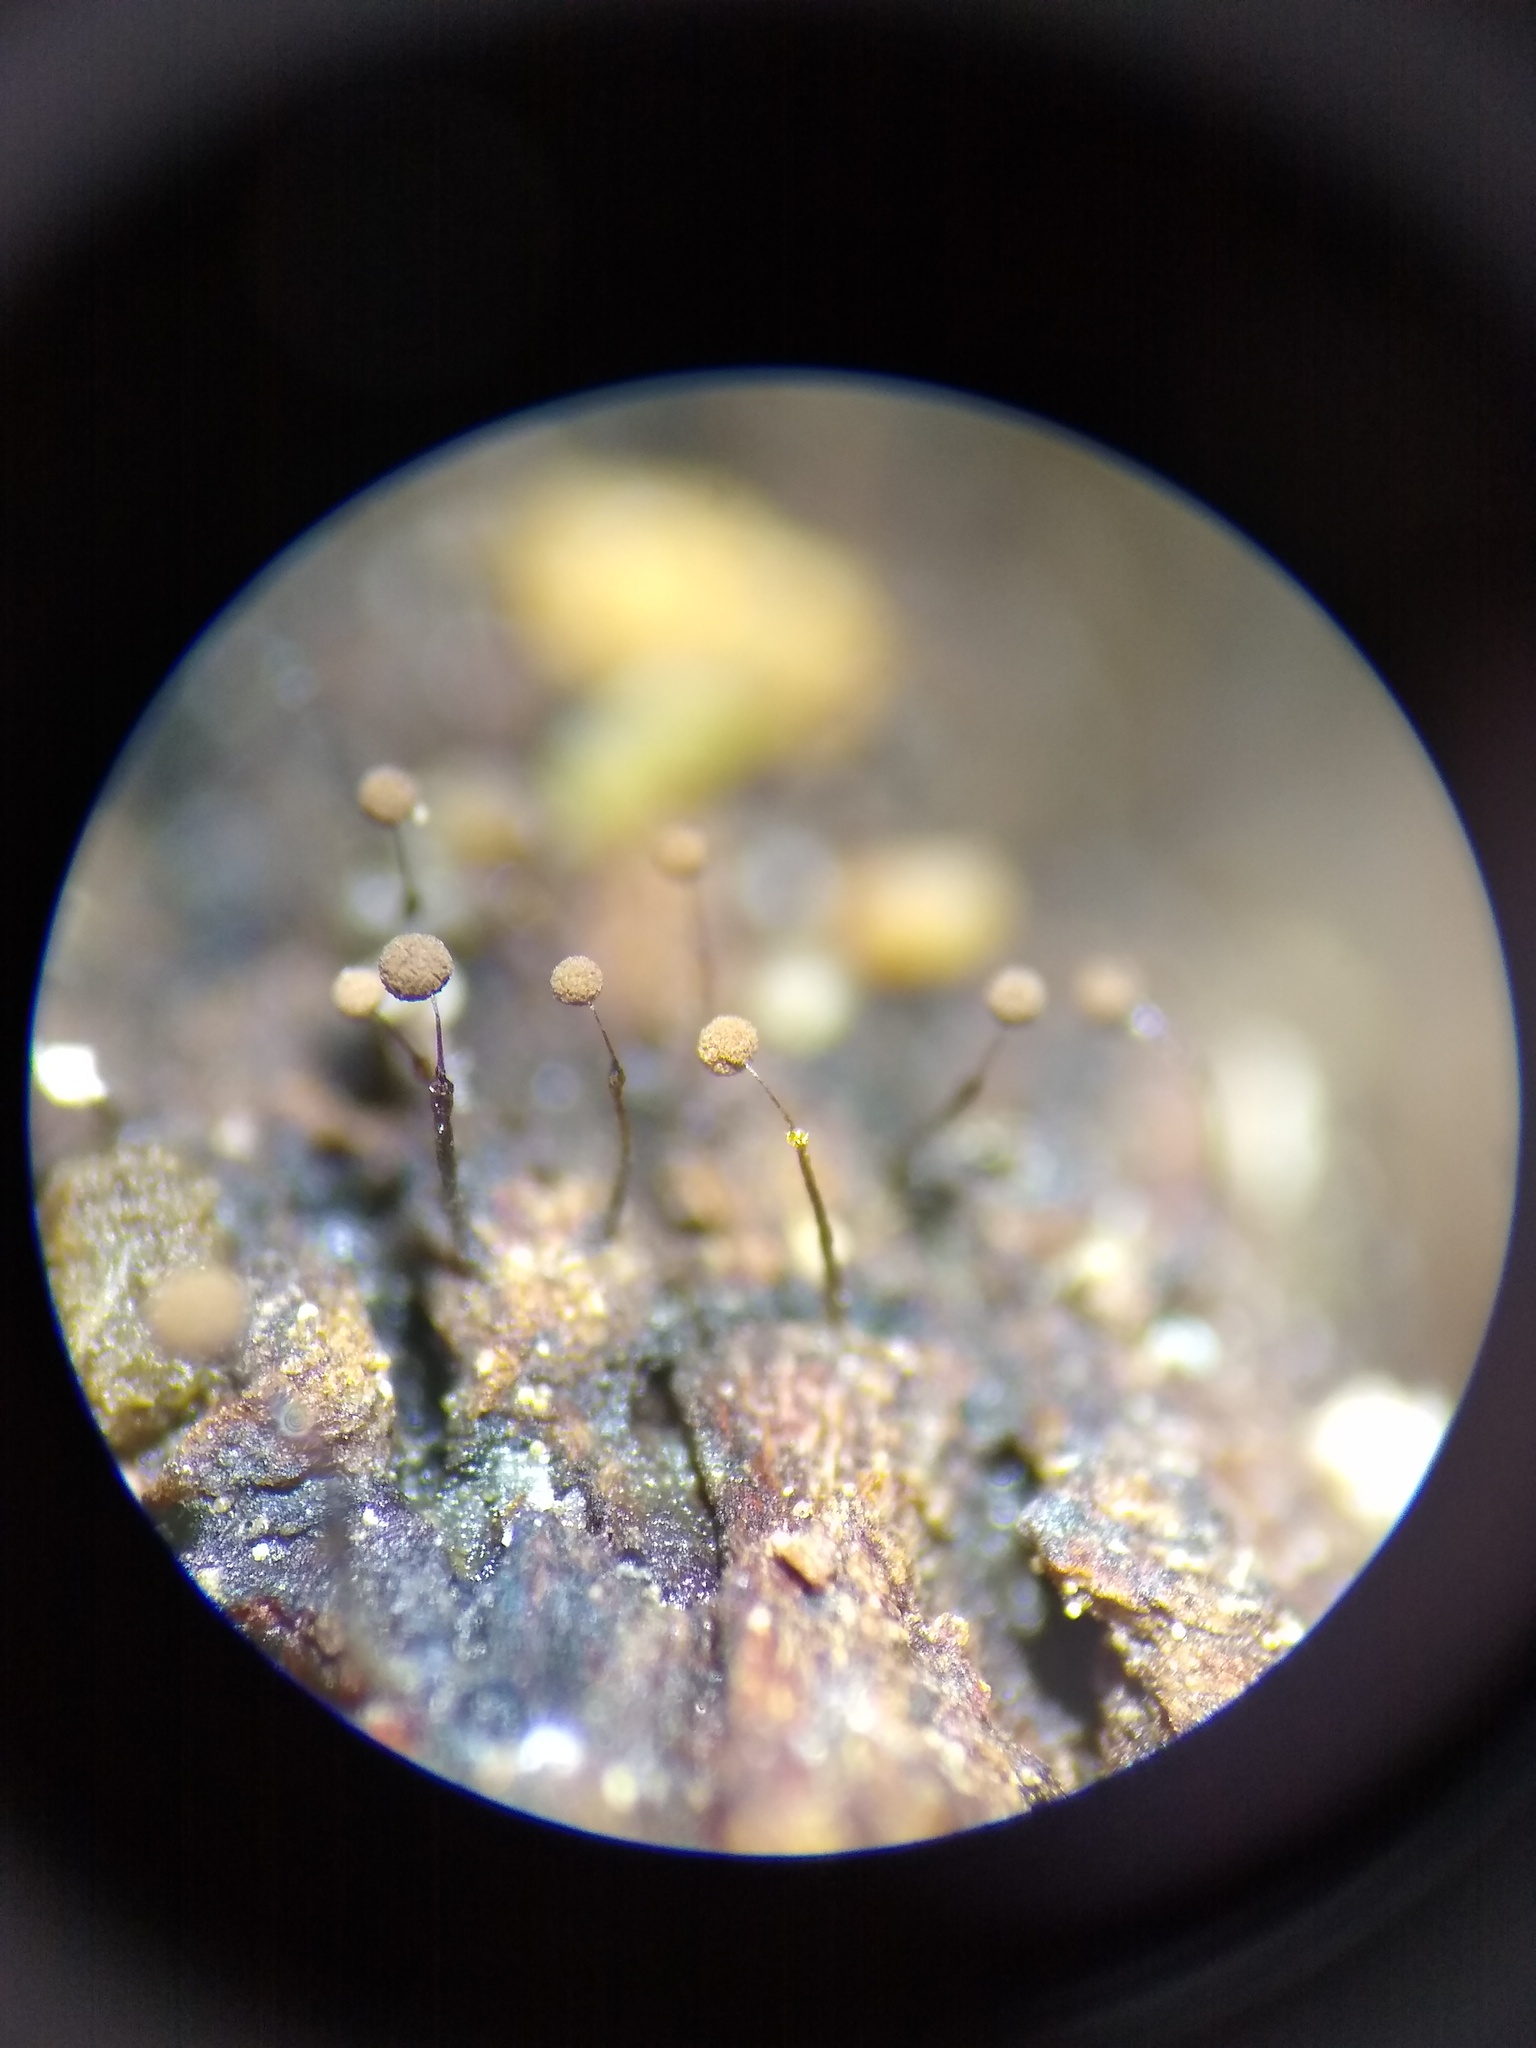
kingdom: Protozoa
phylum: Mycetozoa
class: Myxomycetes
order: Echinosteliales
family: Clastodermataceae
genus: Clastoderma
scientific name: Clastoderma debaryanum
